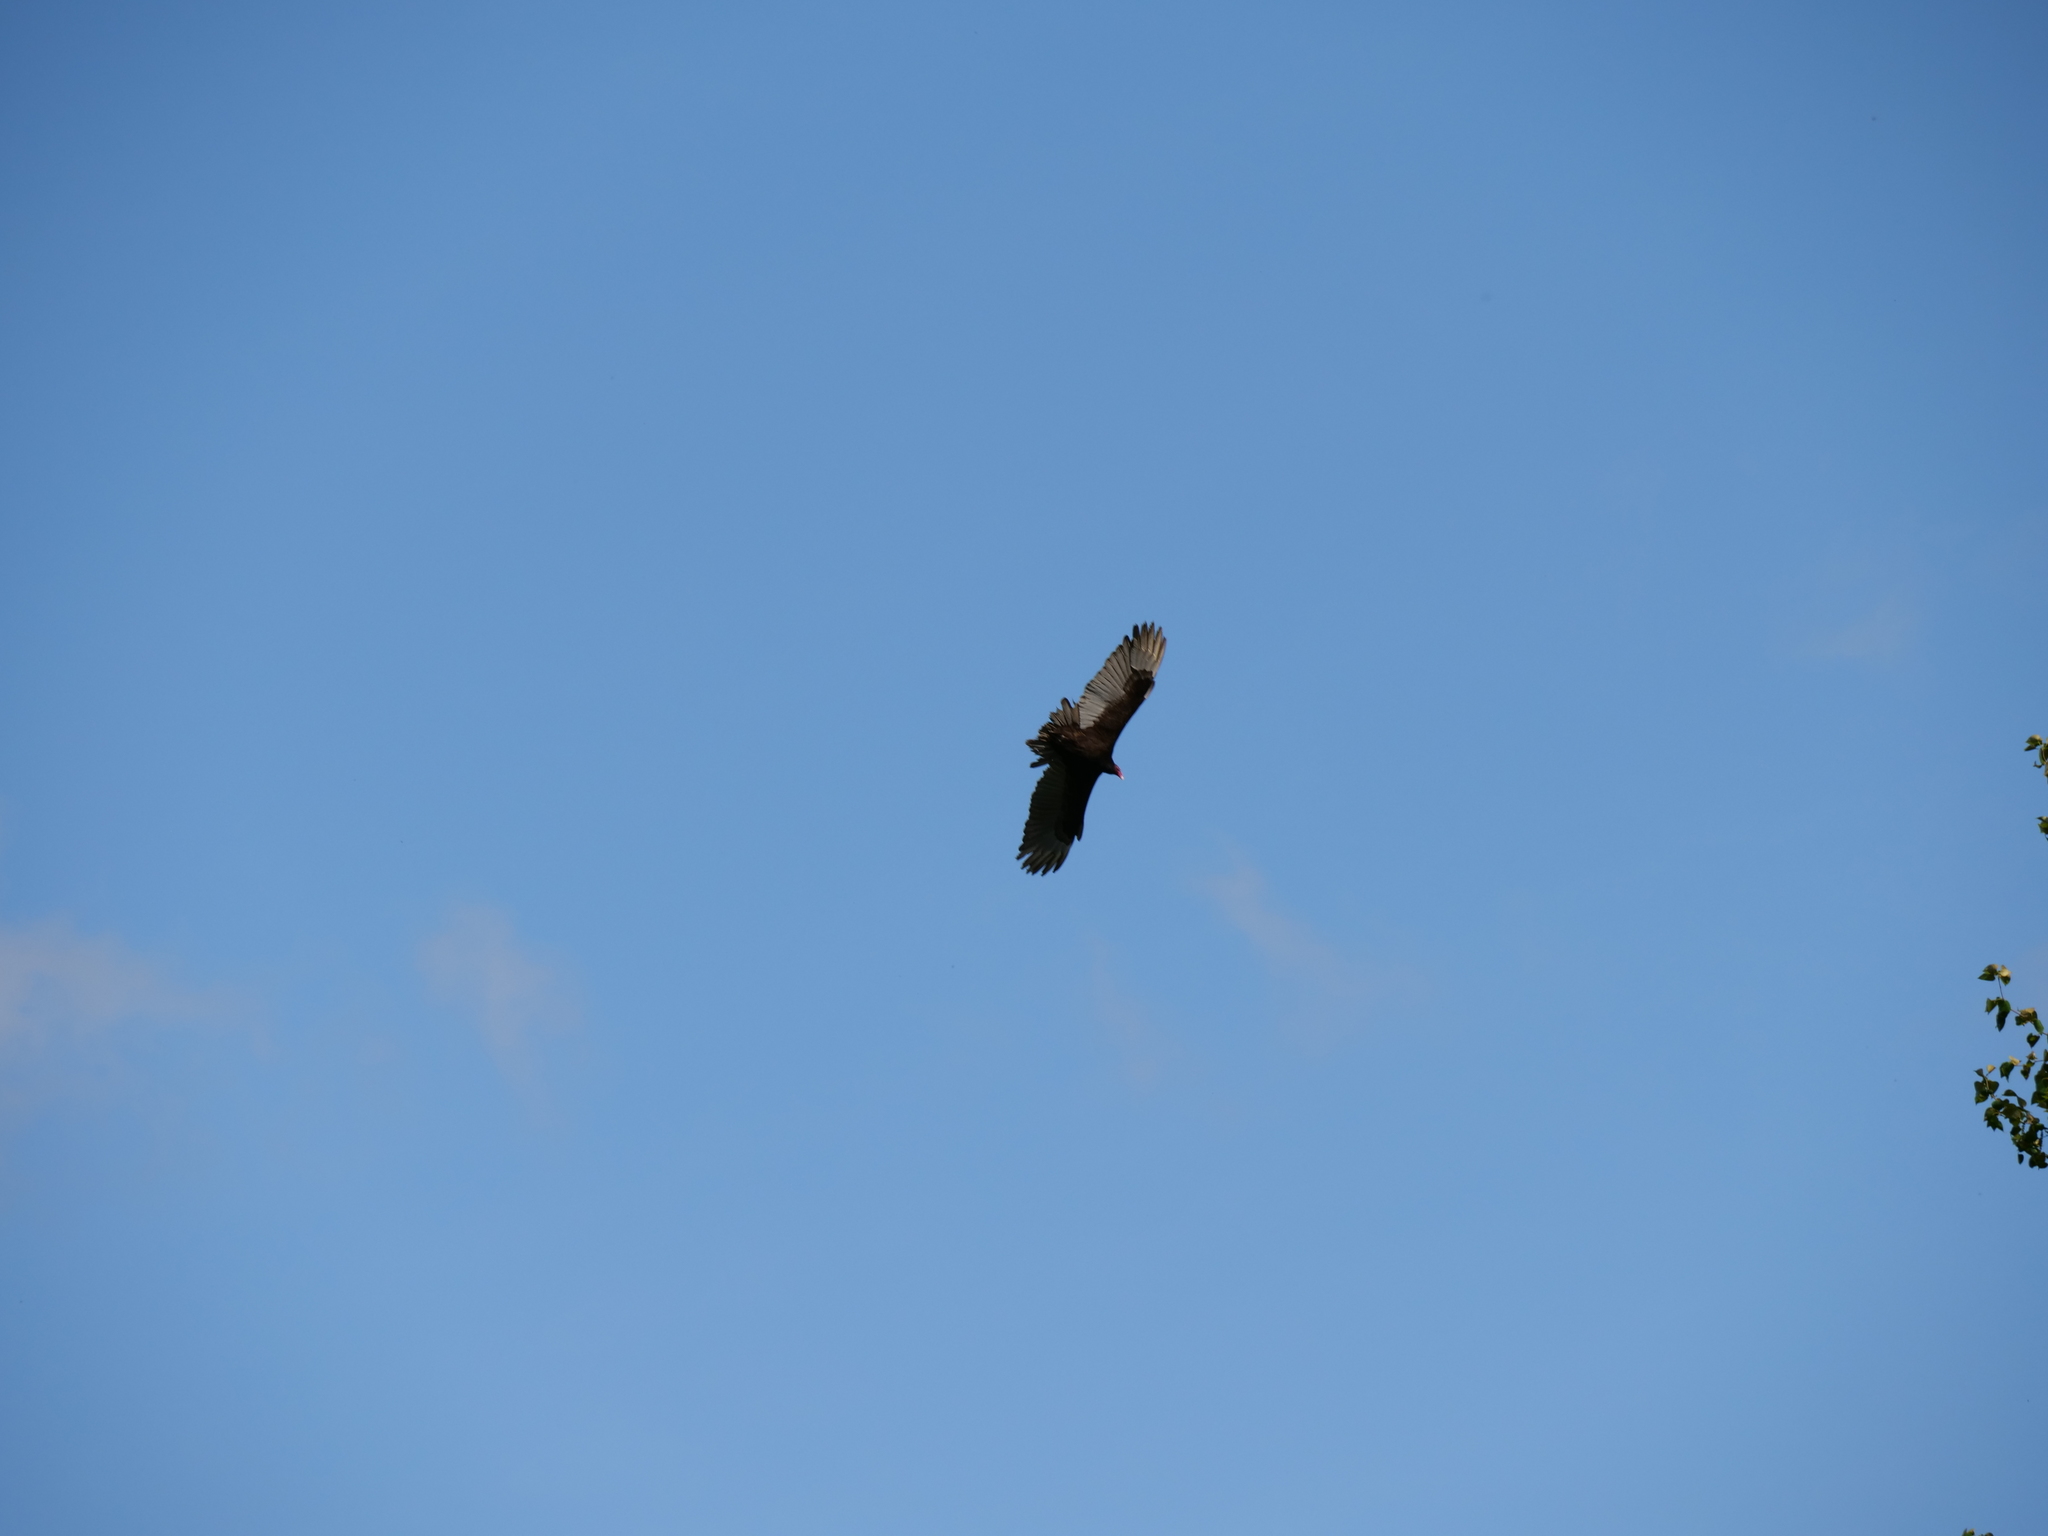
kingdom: Animalia
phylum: Chordata
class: Aves
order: Accipitriformes
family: Cathartidae
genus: Cathartes
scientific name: Cathartes aura
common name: Turkey vulture
